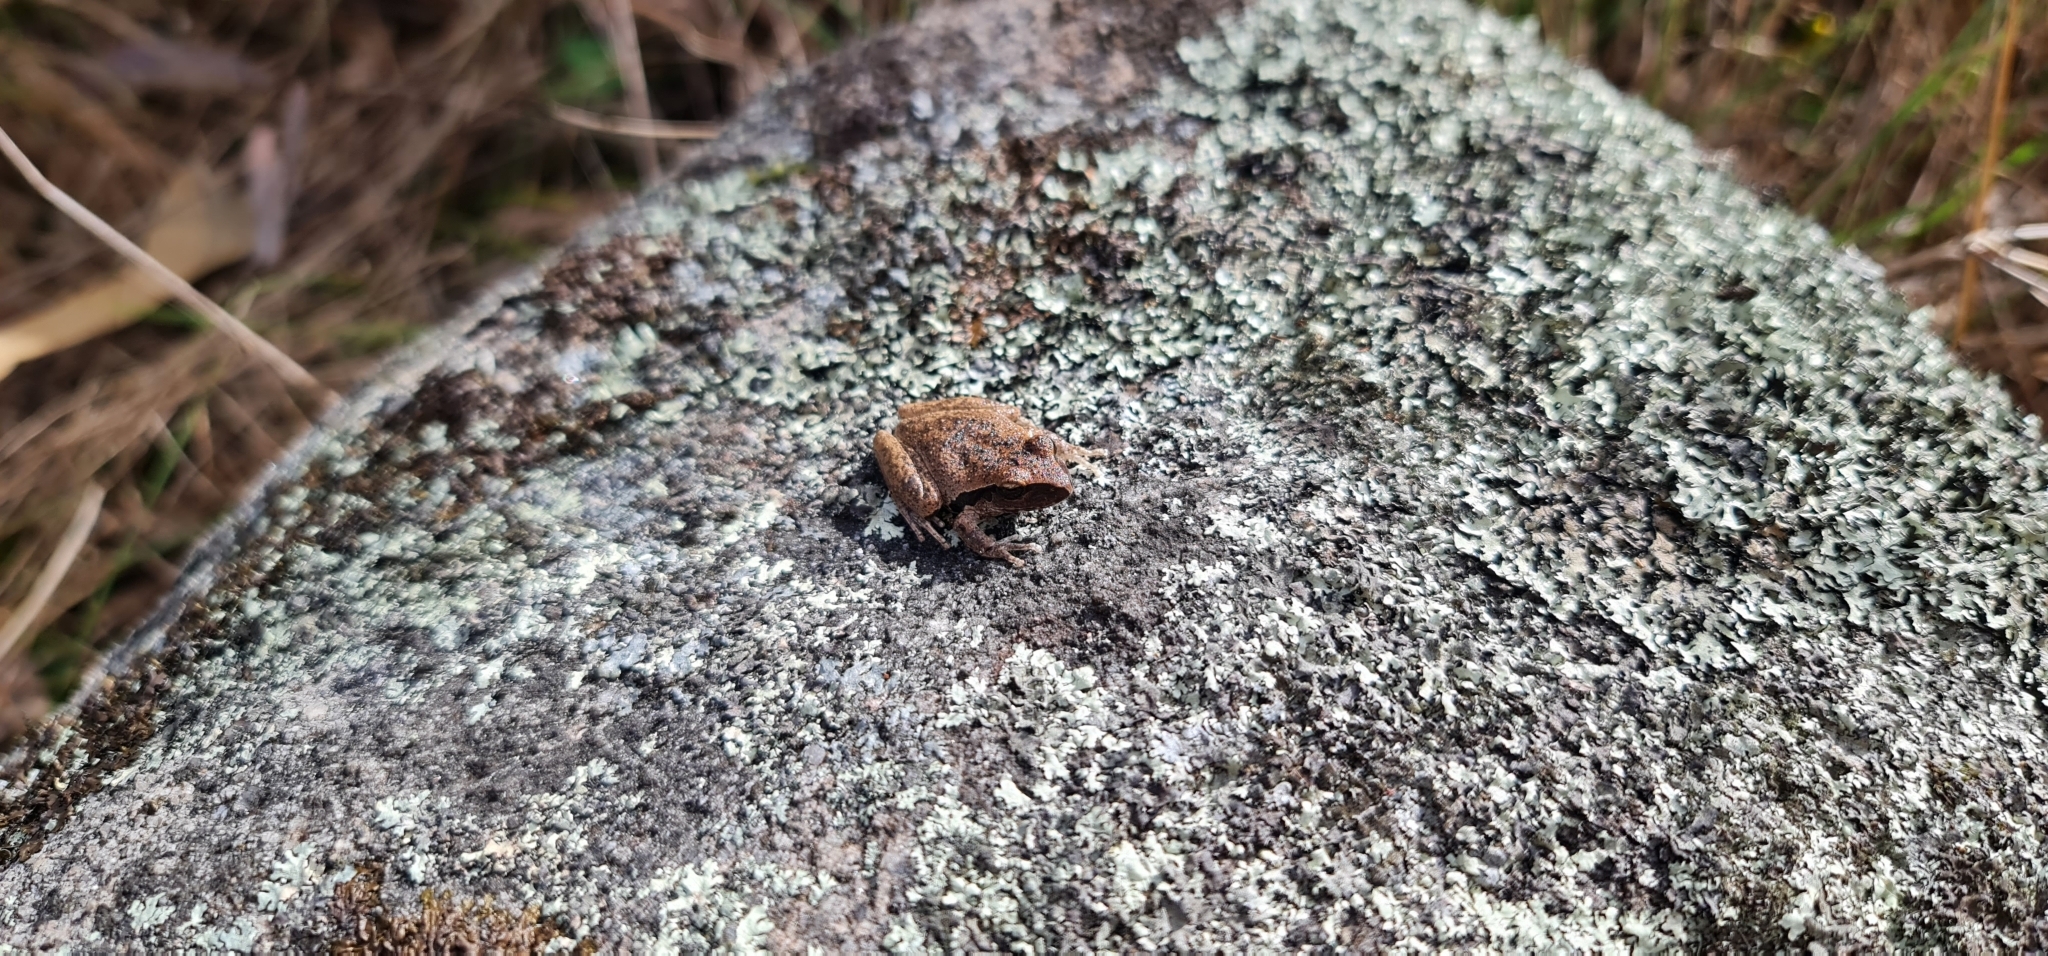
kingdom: Animalia
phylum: Chordata
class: Amphibia
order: Anura
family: Pelodryadidae
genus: Ranoidea
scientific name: Ranoidea wilcoxii
